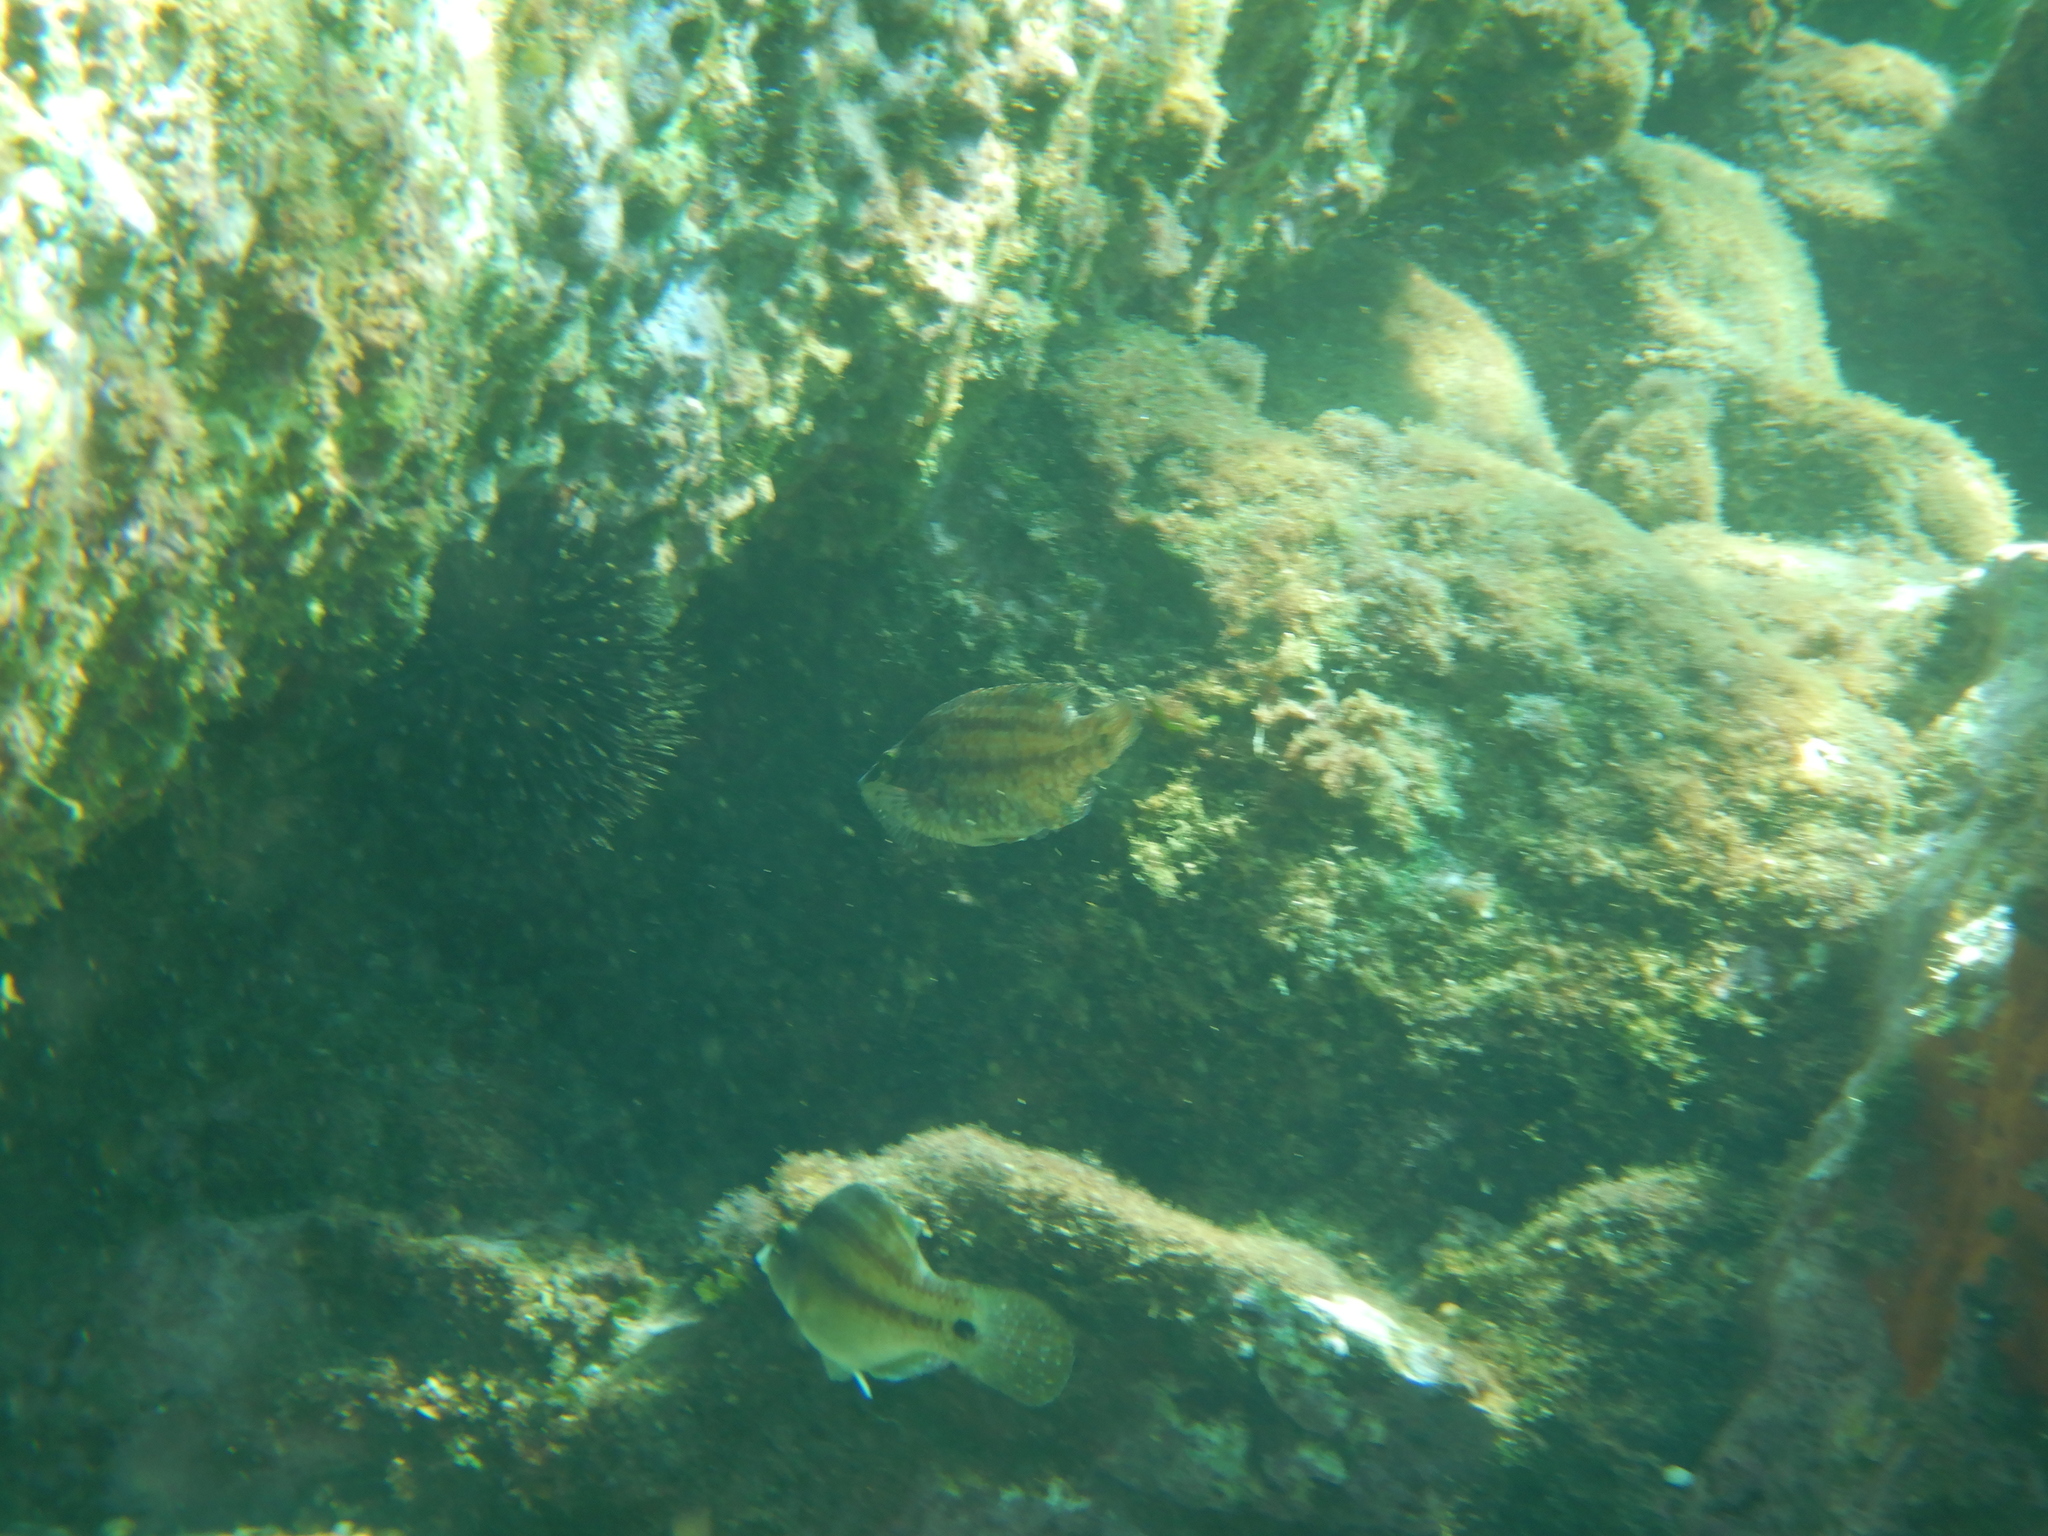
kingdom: Animalia
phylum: Chordata
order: Perciformes
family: Labridae
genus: Symphodus
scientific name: Symphodus roissali
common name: Five-spotted wrasse
